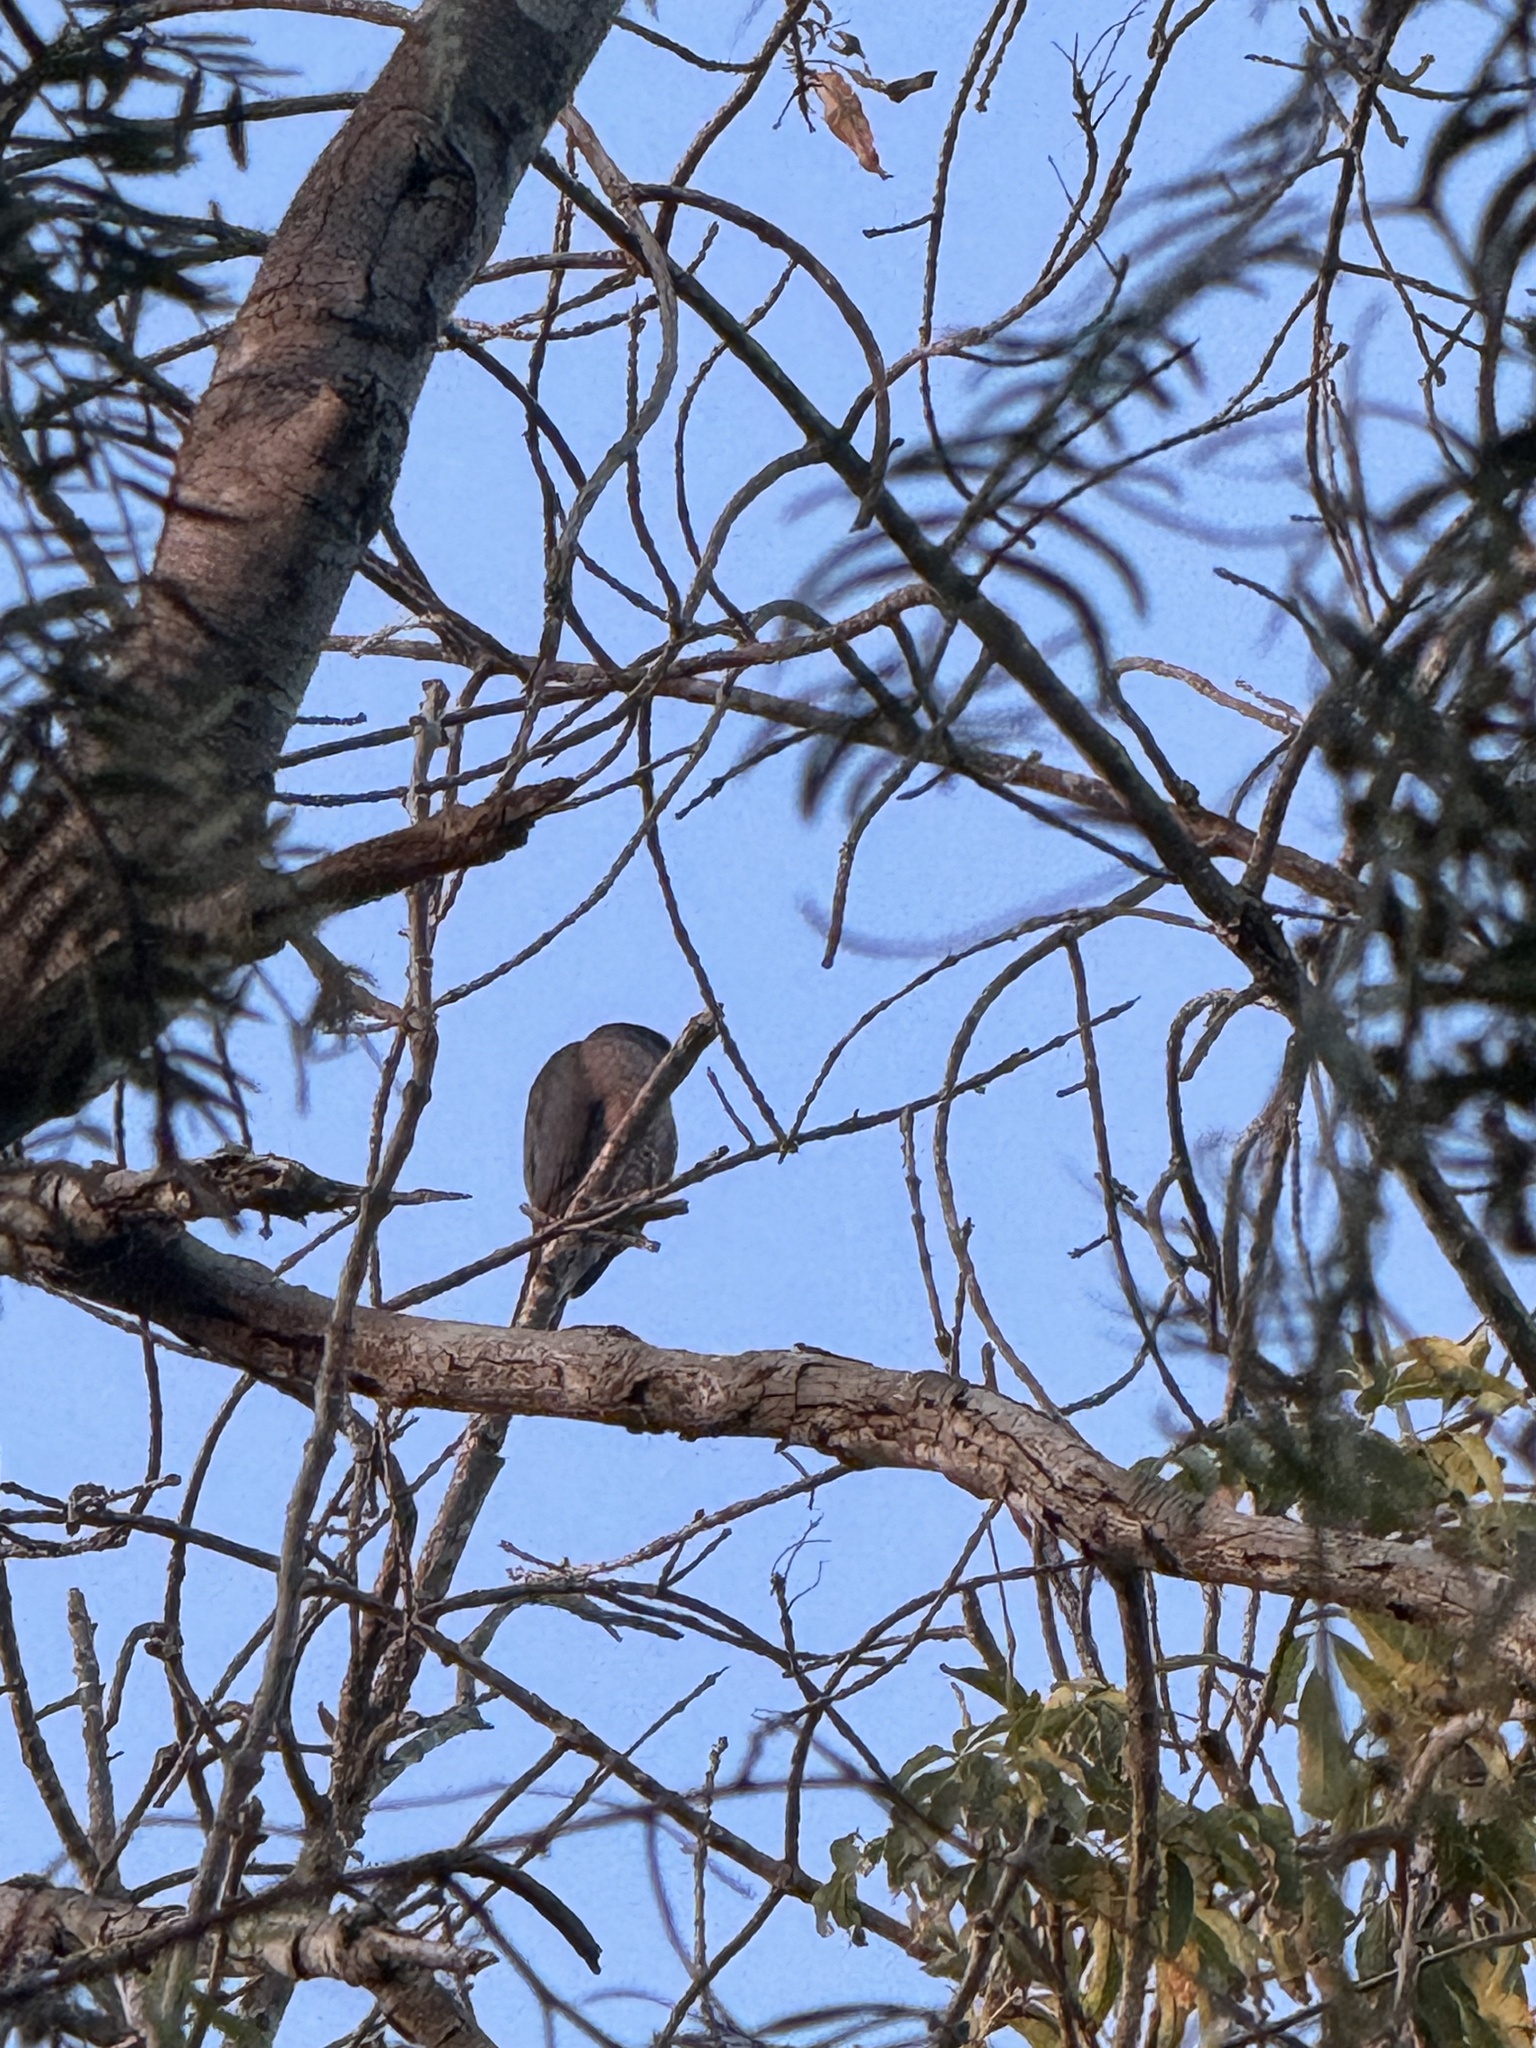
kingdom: Animalia
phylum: Chordata
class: Aves
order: Accipitriformes
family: Accipitridae
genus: Accipiter
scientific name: Accipiter cooperii
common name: Cooper's hawk
